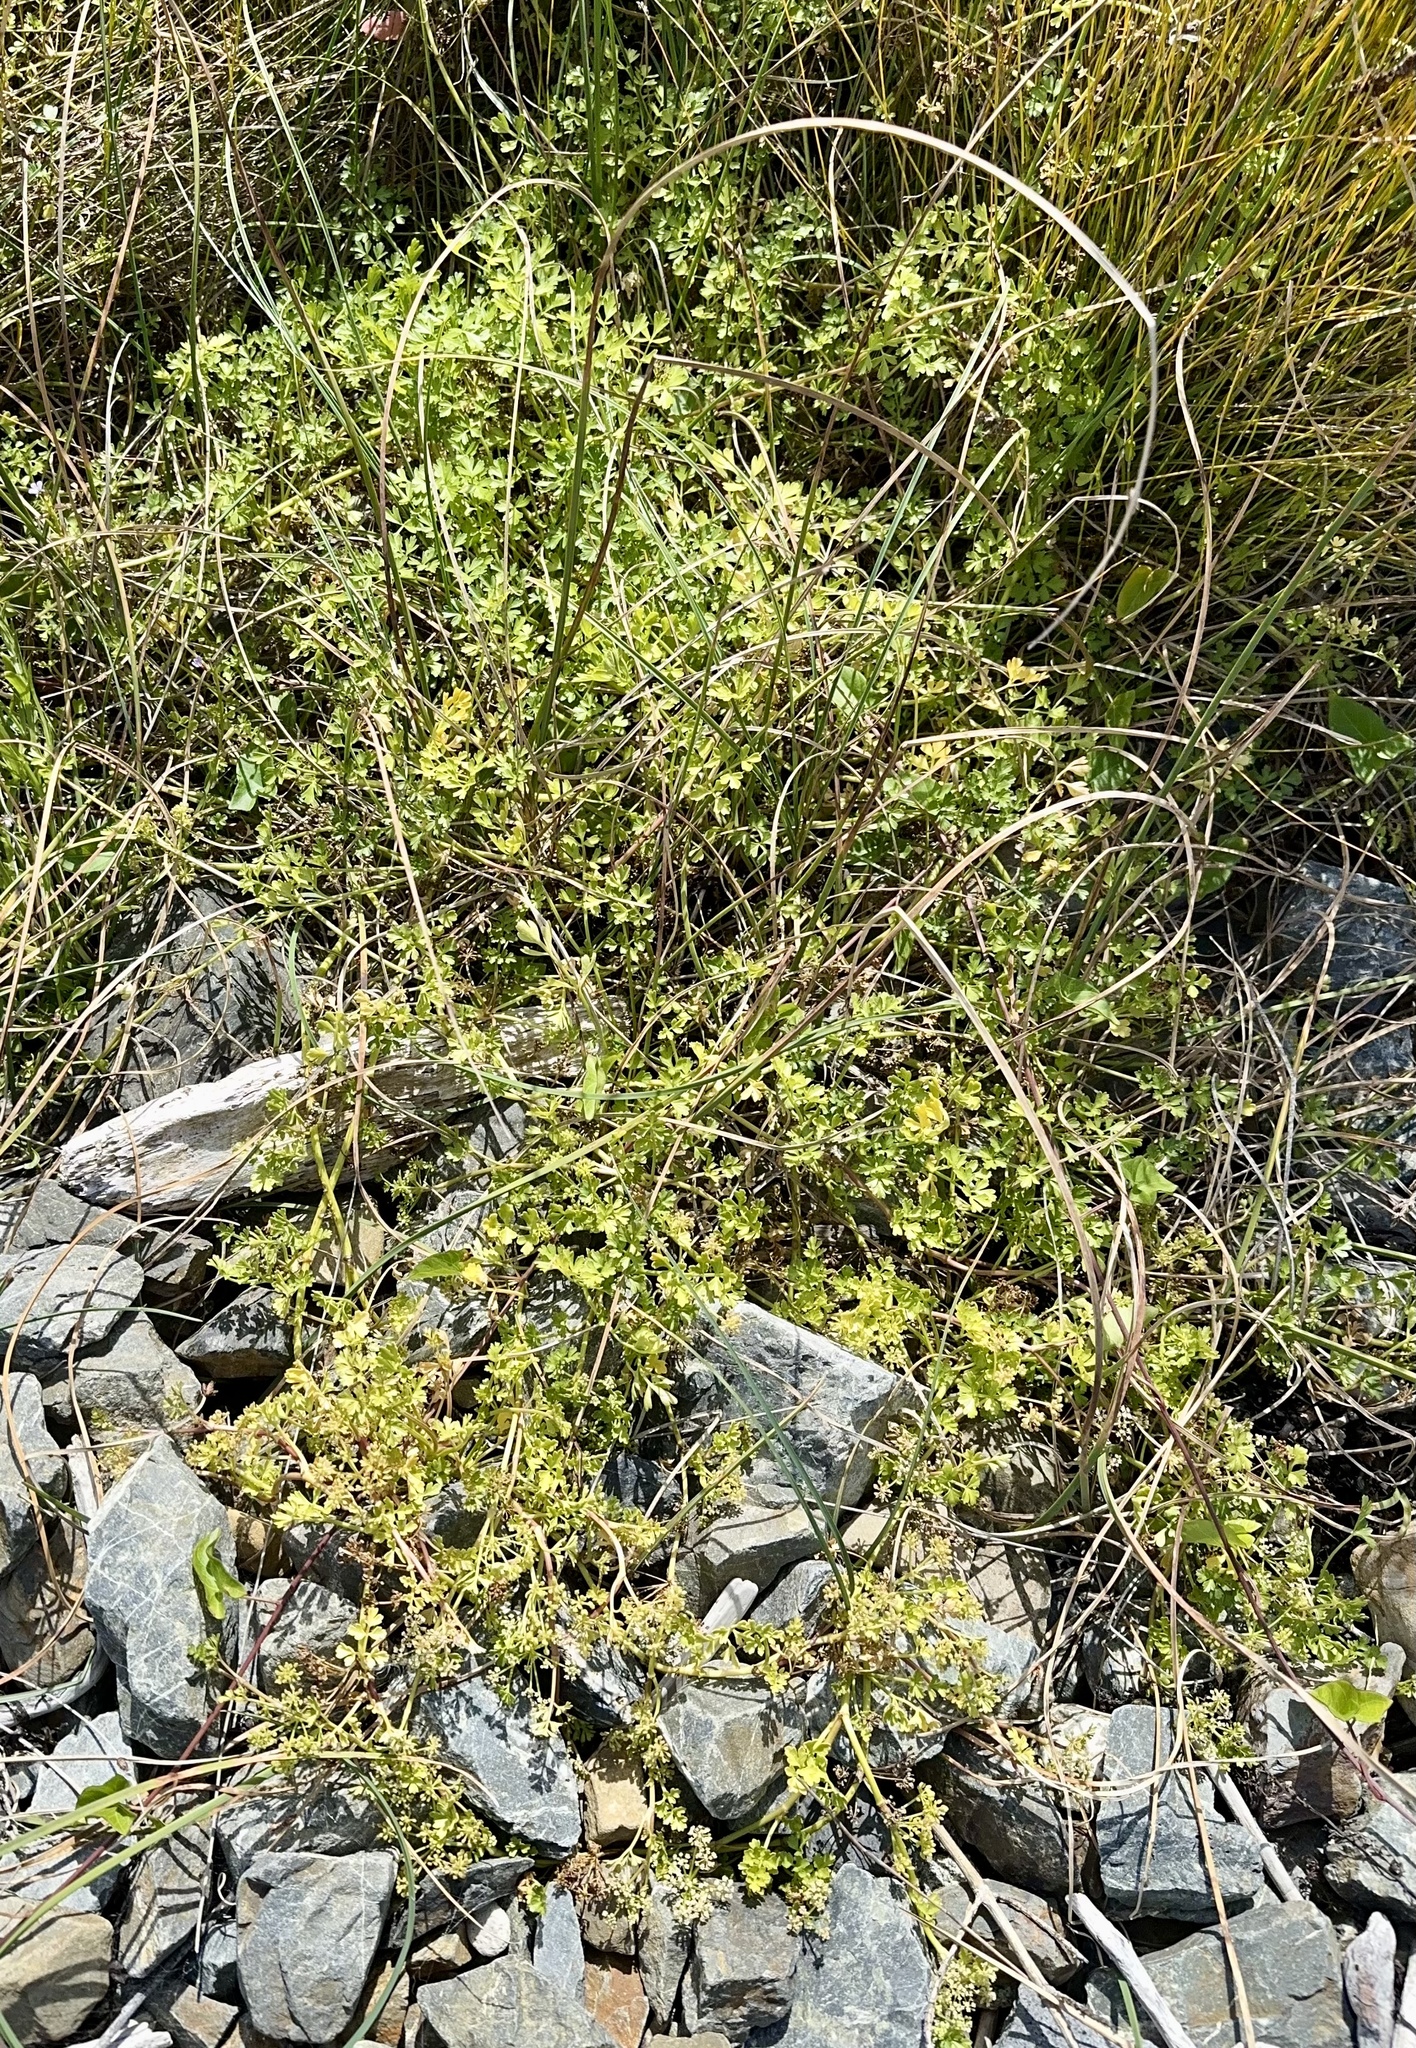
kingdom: Plantae
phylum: Tracheophyta
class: Magnoliopsida
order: Apiales
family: Apiaceae
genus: Apium
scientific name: Apium prostratum
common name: Prostrate marshwort
